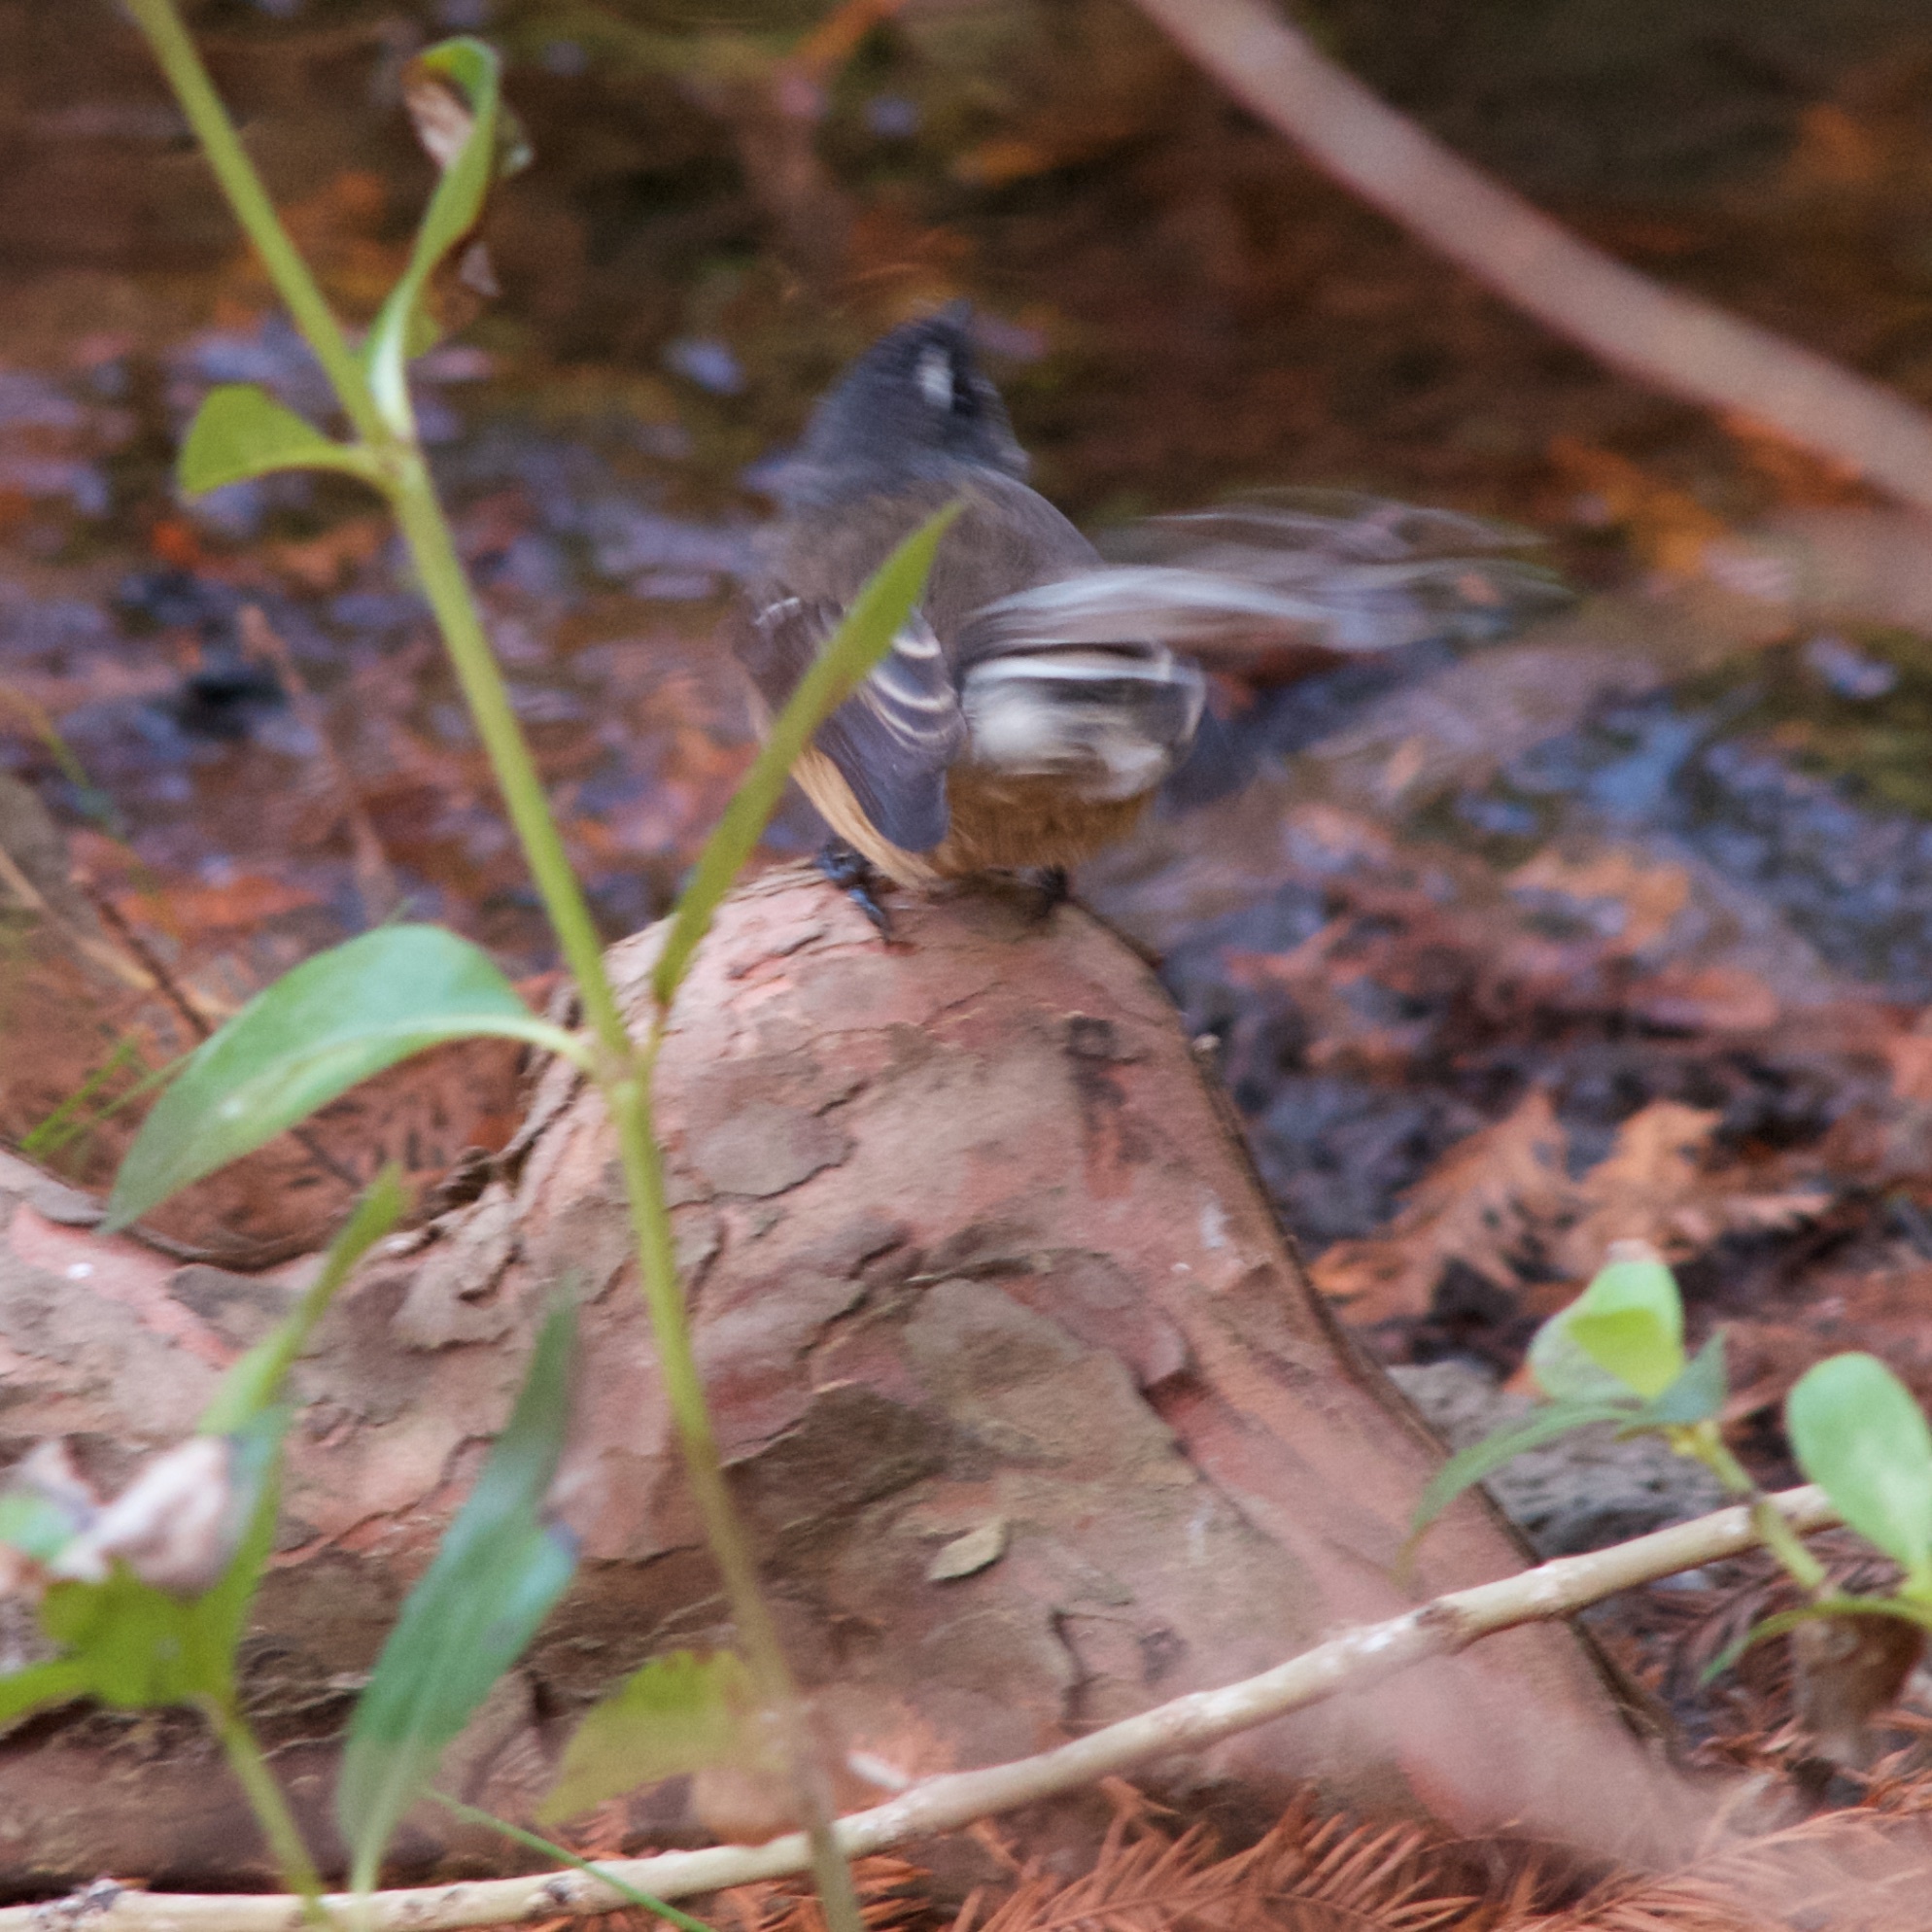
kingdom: Animalia
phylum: Chordata
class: Aves
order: Passeriformes
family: Rhipiduridae
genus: Rhipidura
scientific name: Rhipidura fuliginosa
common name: New zealand fantail
